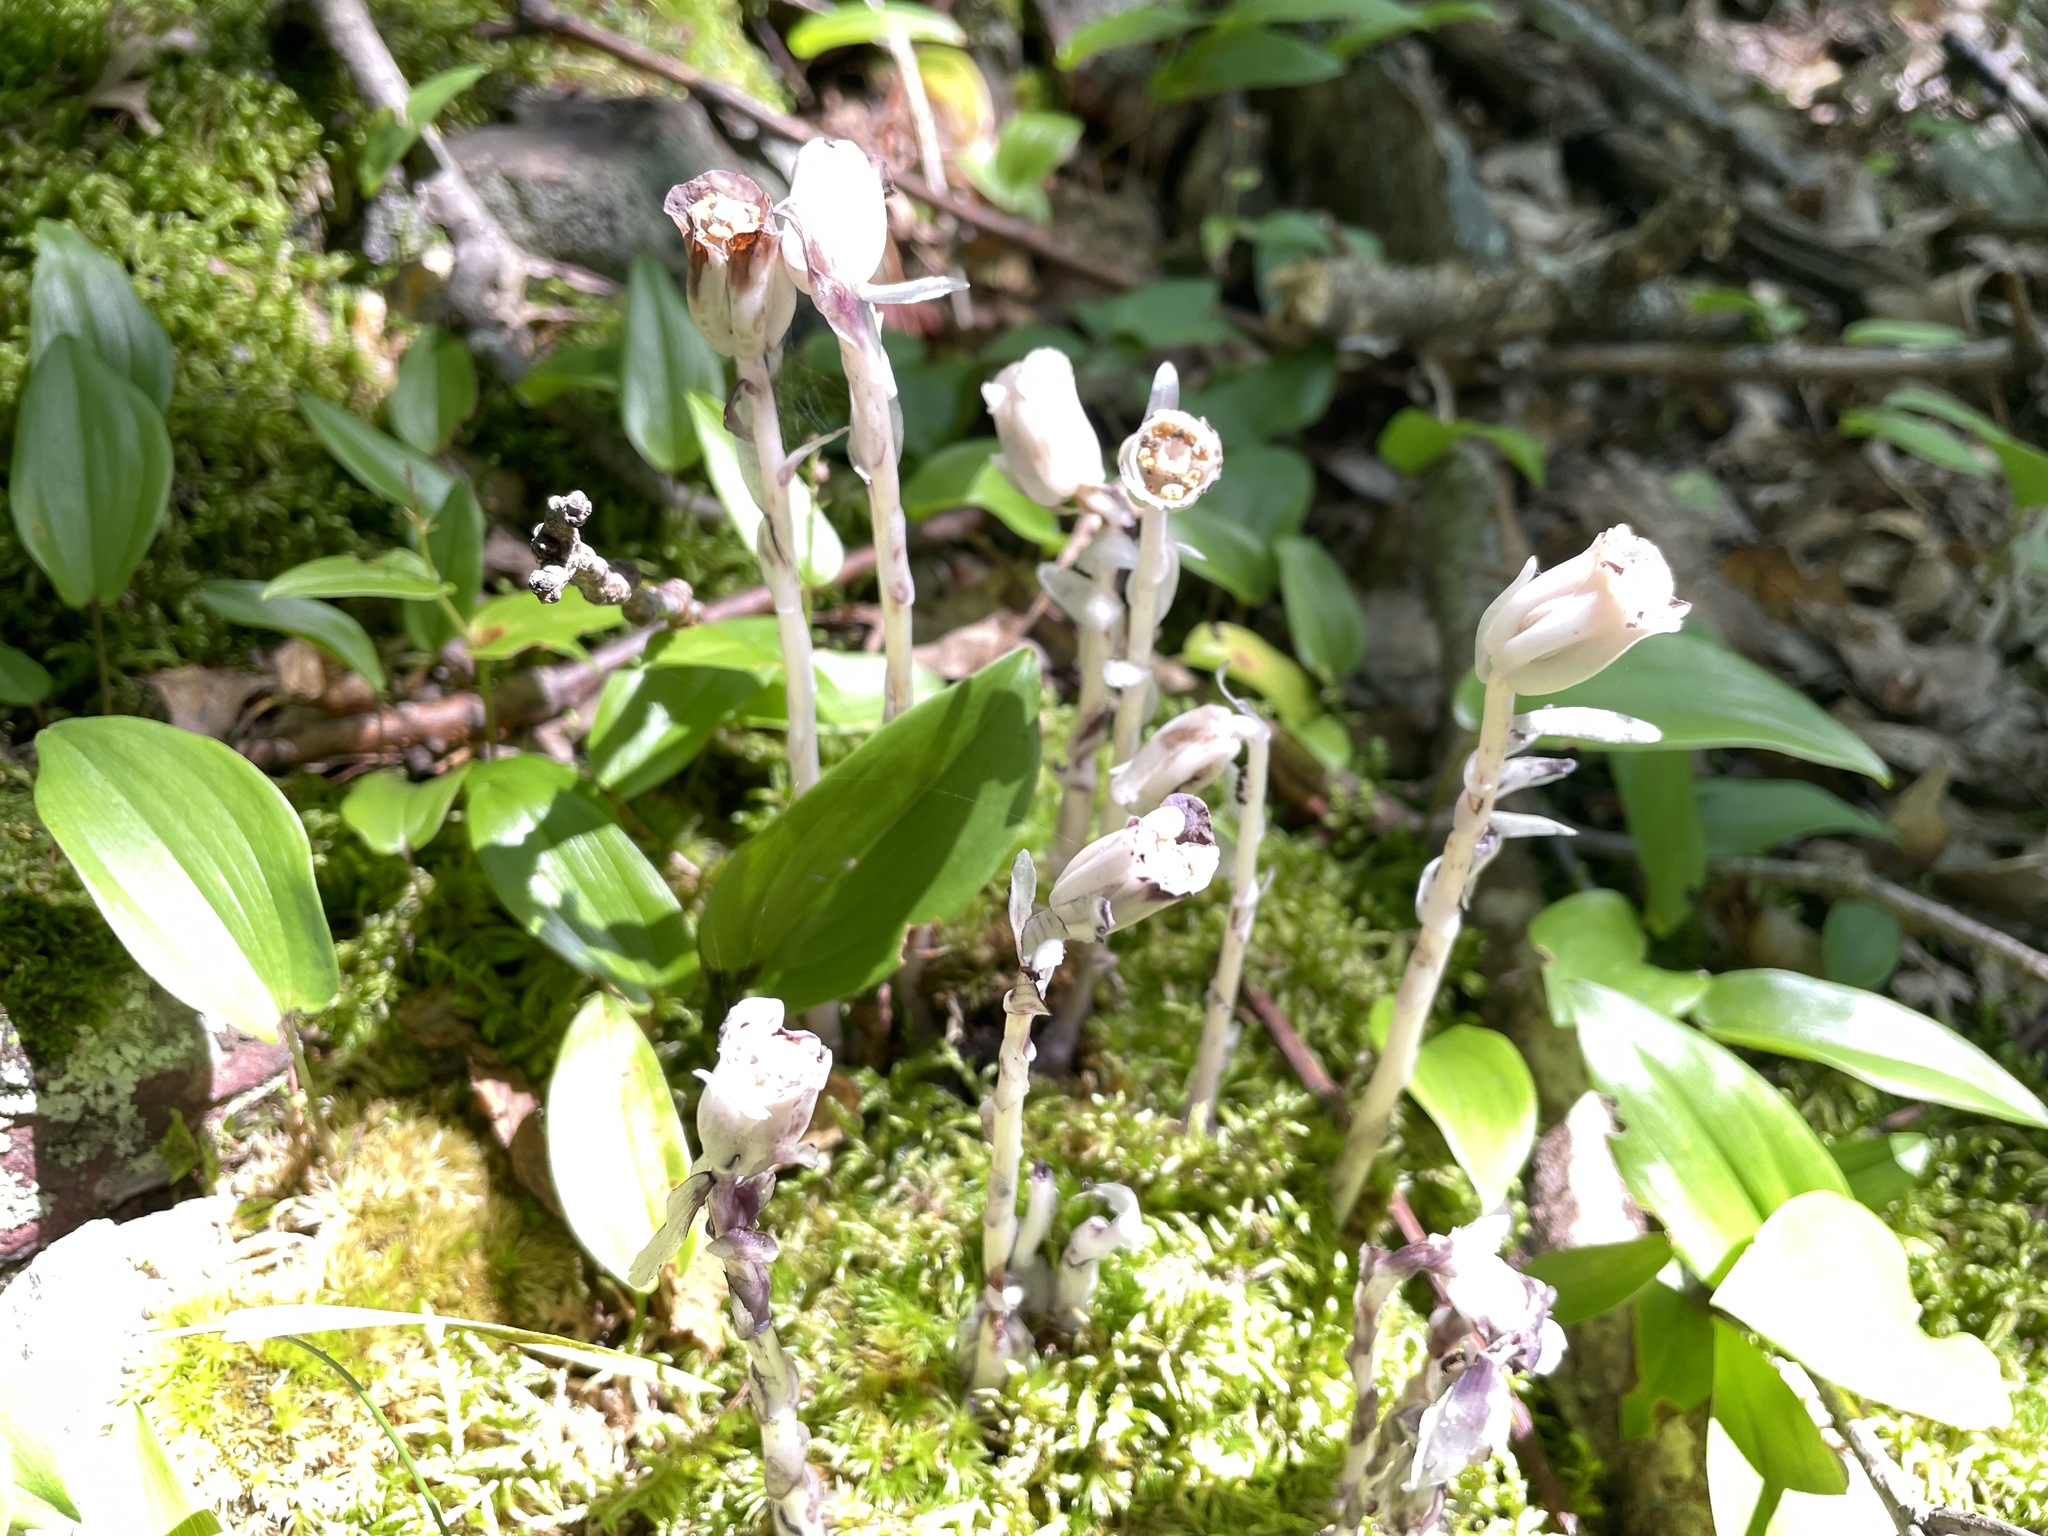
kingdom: Plantae
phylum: Tracheophyta
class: Magnoliopsida
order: Ericales
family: Ericaceae
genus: Monotropa
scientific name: Monotropa uniflora
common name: Convulsion root
